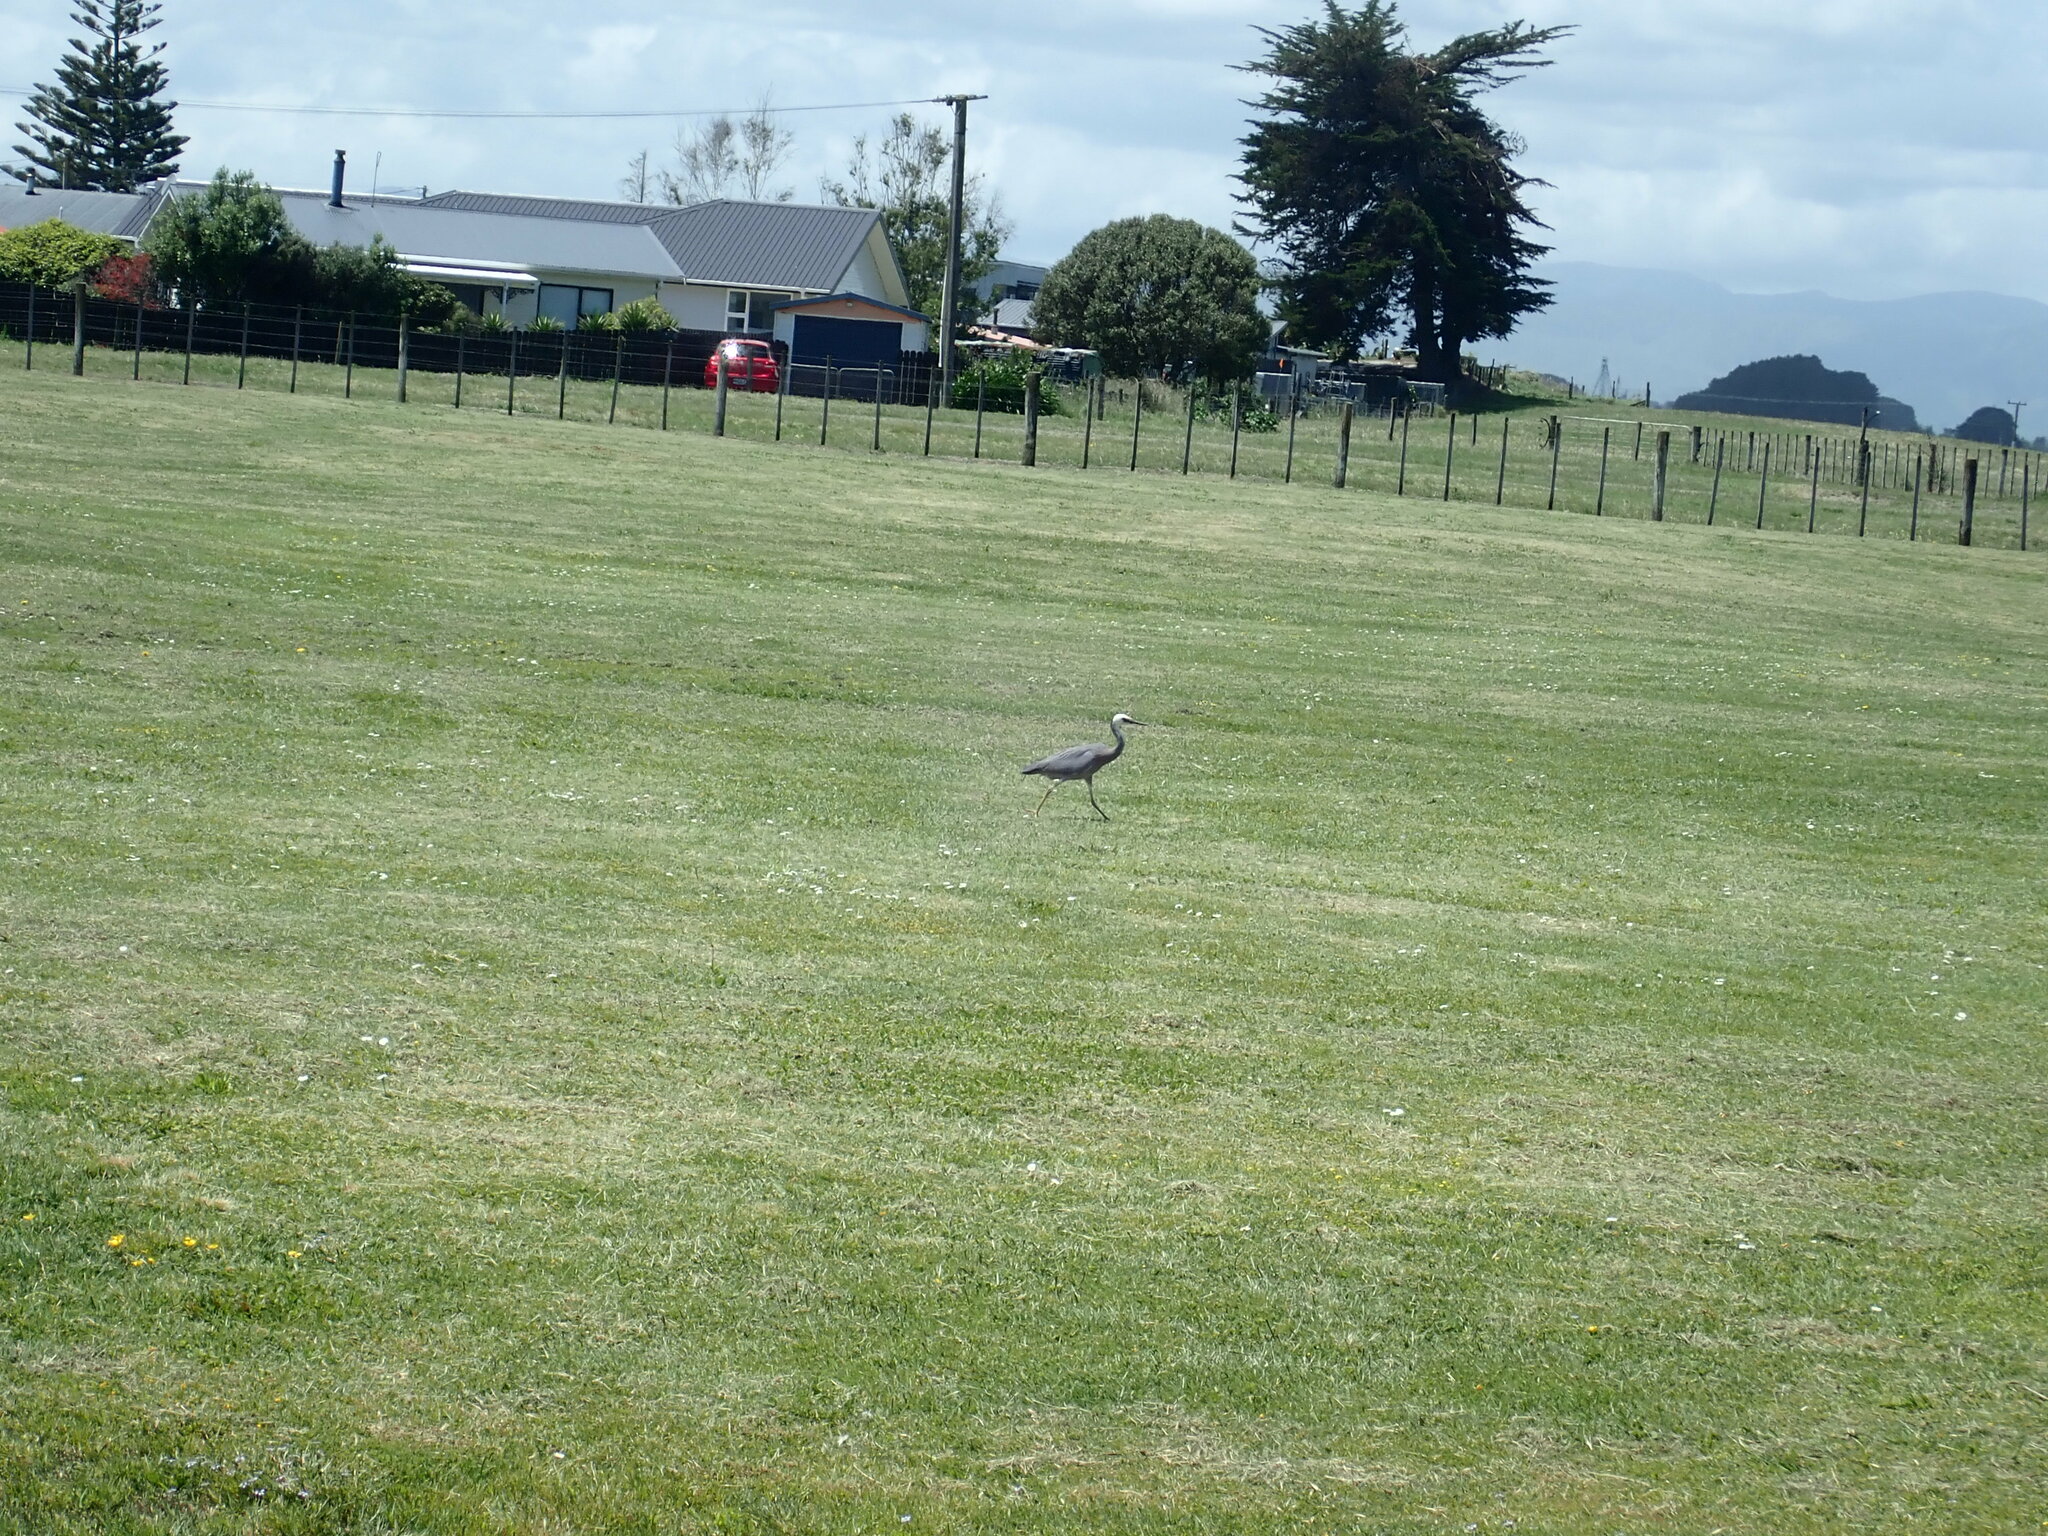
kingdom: Animalia
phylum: Chordata
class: Aves
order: Pelecaniformes
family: Ardeidae
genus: Egretta
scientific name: Egretta novaehollandiae
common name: White-faced heron
